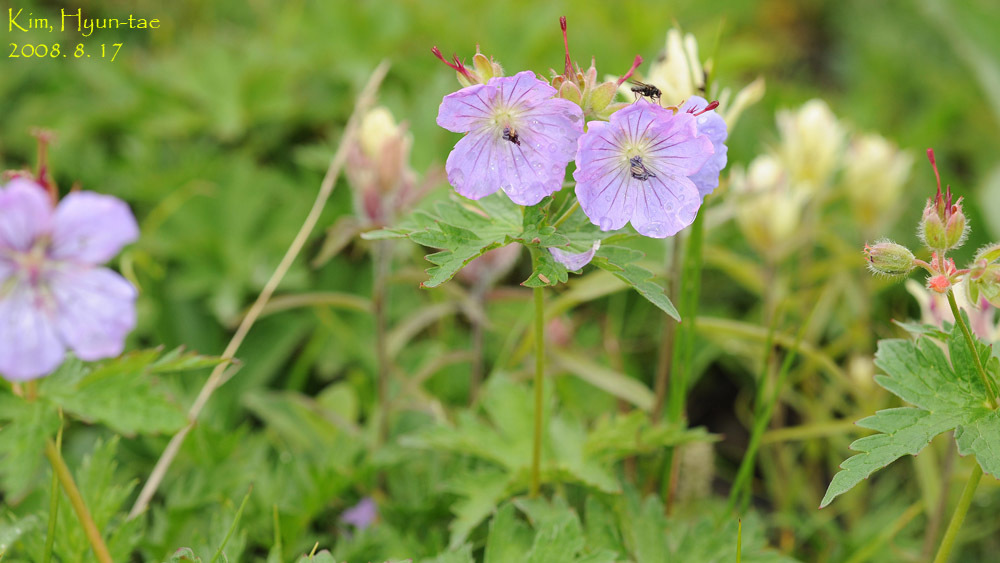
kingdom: Plantae
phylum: Tracheophyta
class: Magnoliopsida
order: Geraniales
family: Geraniaceae
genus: Geranium
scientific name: Geranium erianthum
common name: Northern crane's-bill
